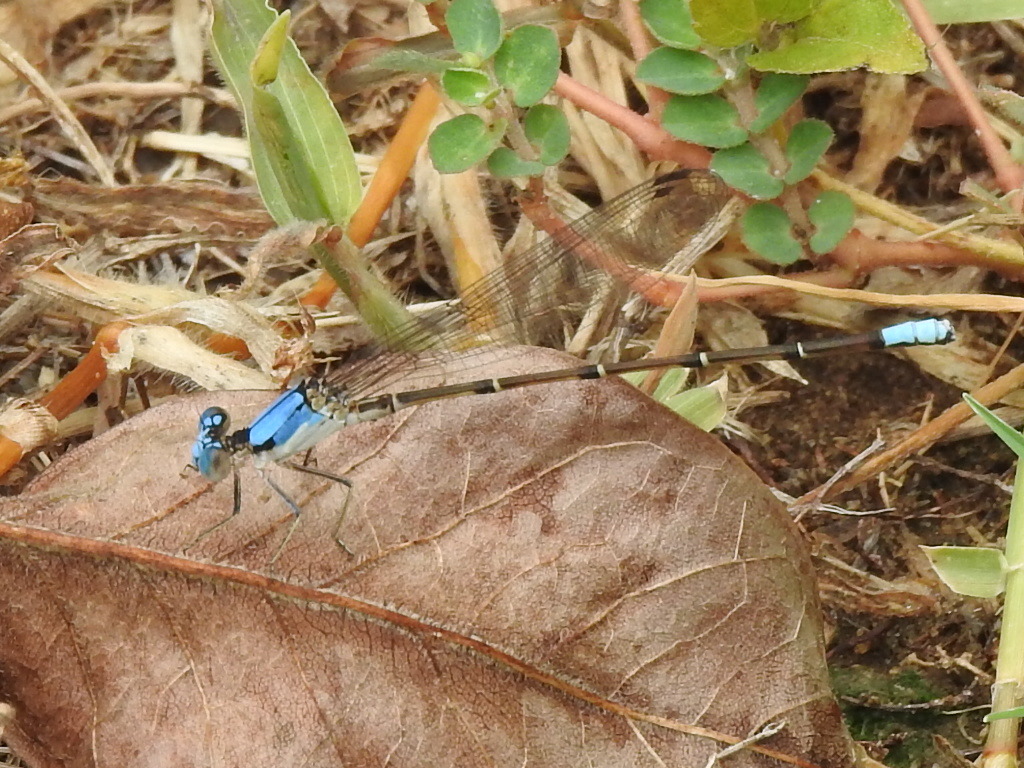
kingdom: Animalia
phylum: Arthropoda
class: Insecta
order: Odonata
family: Coenagrionidae
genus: Argia
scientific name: Argia apicalis
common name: Blue-fronted dancer
